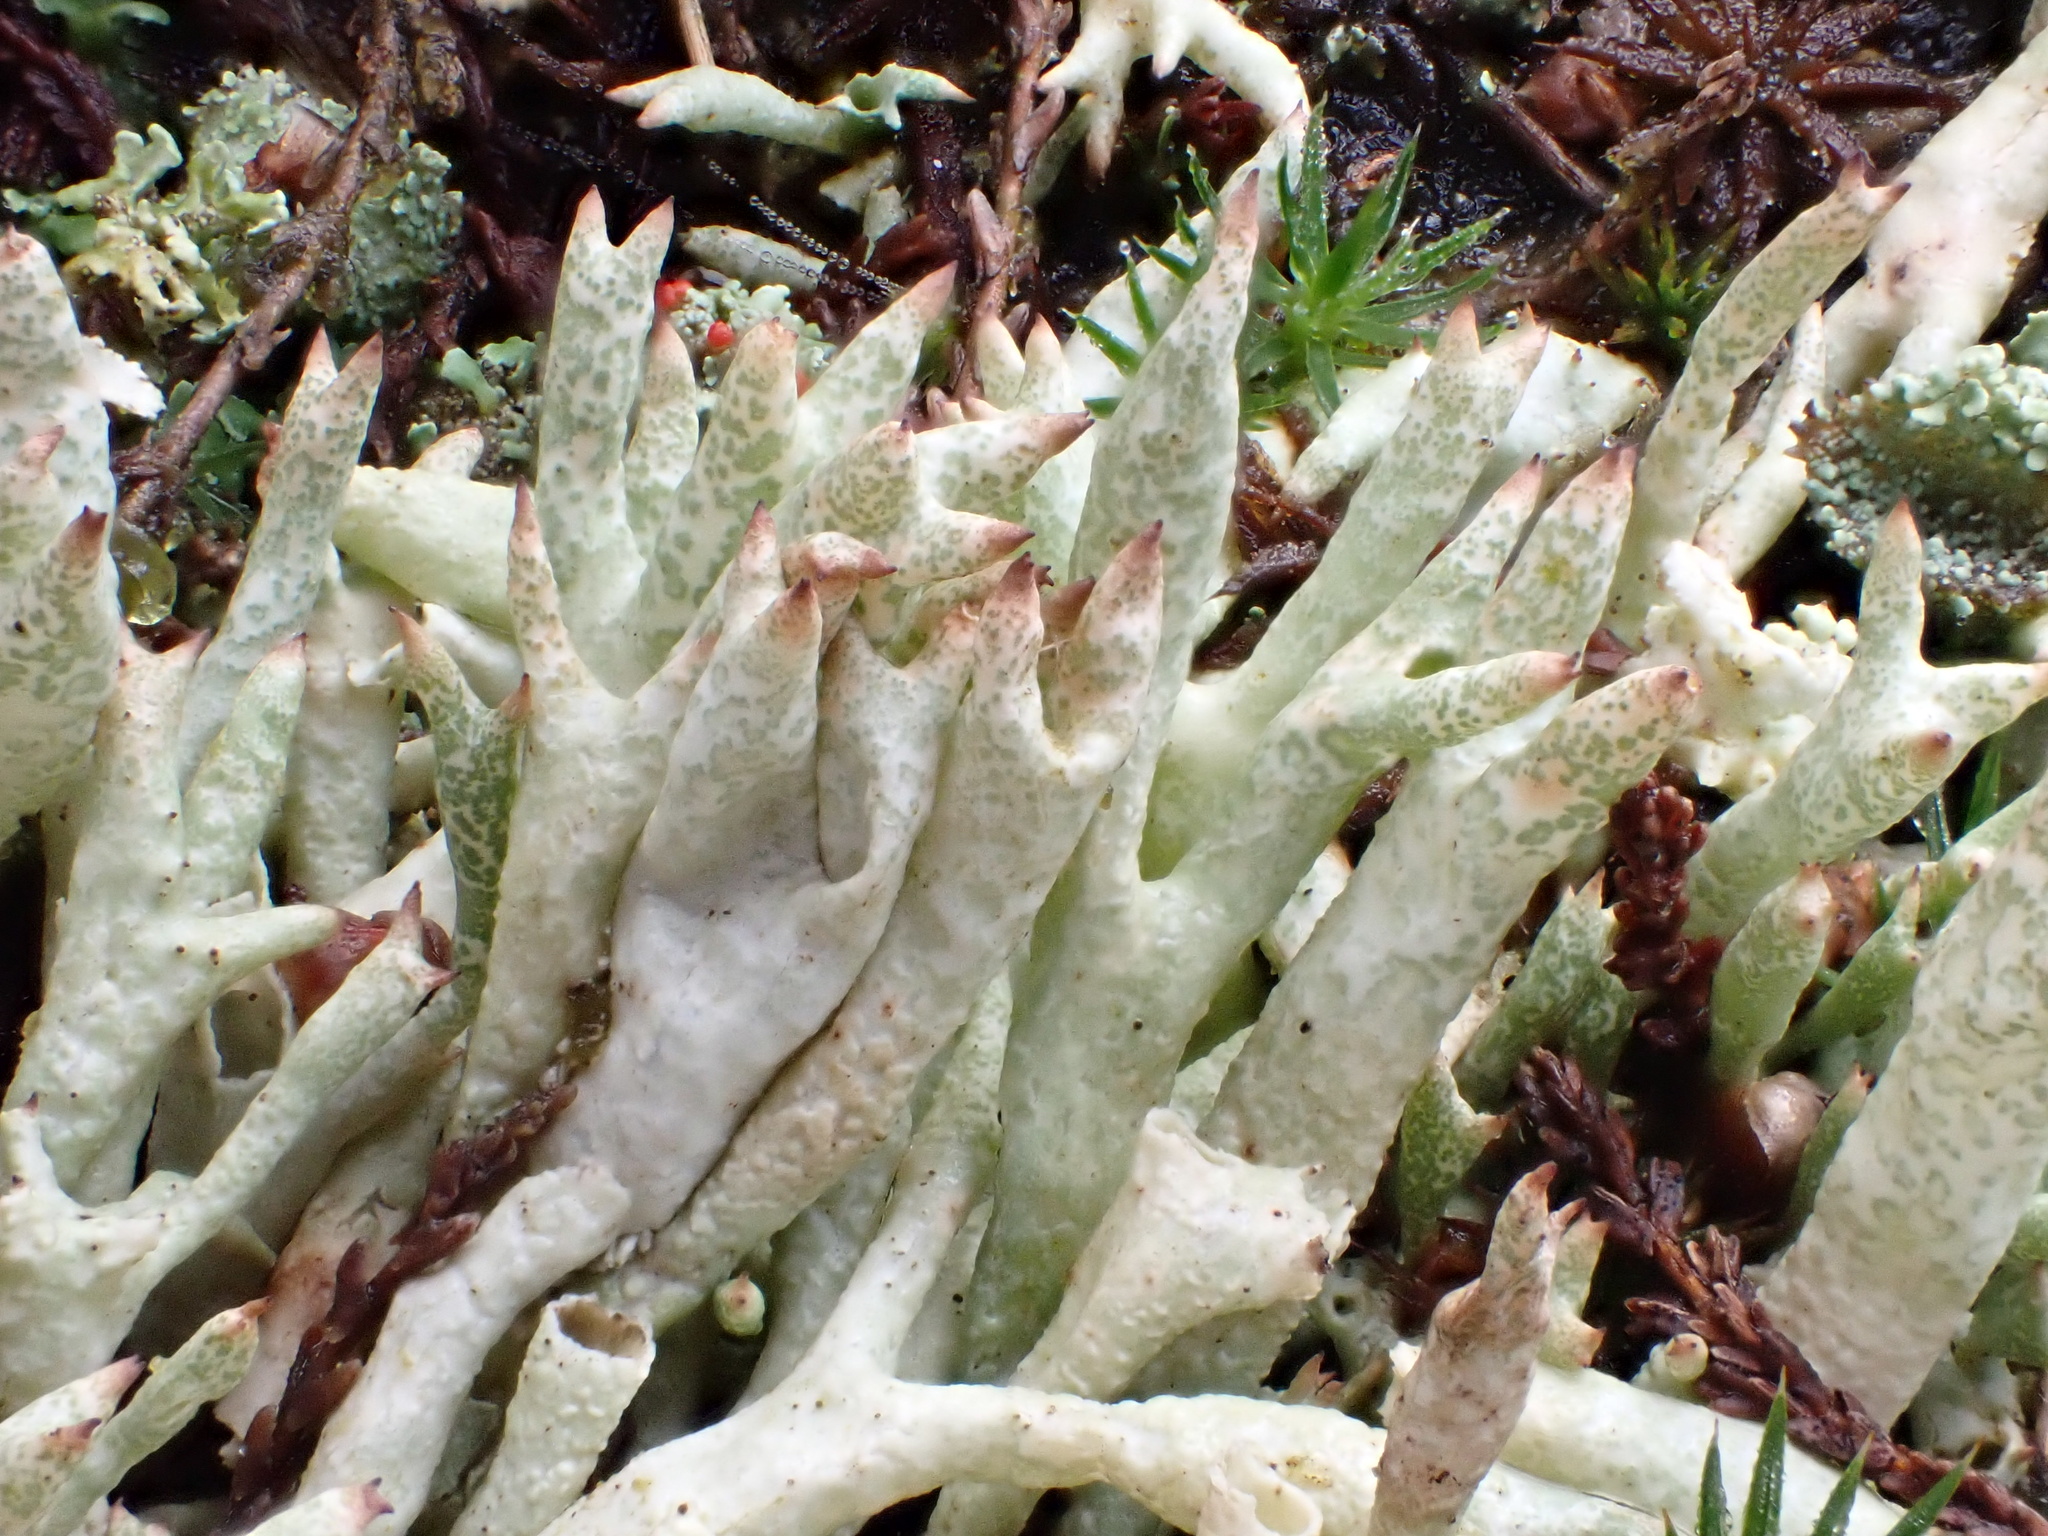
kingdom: Fungi
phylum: Ascomycota
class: Lecanoromycetes
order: Lecanorales
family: Cladoniaceae
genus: Cladonia
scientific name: Cladonia uncialis
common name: Thorn lichen
